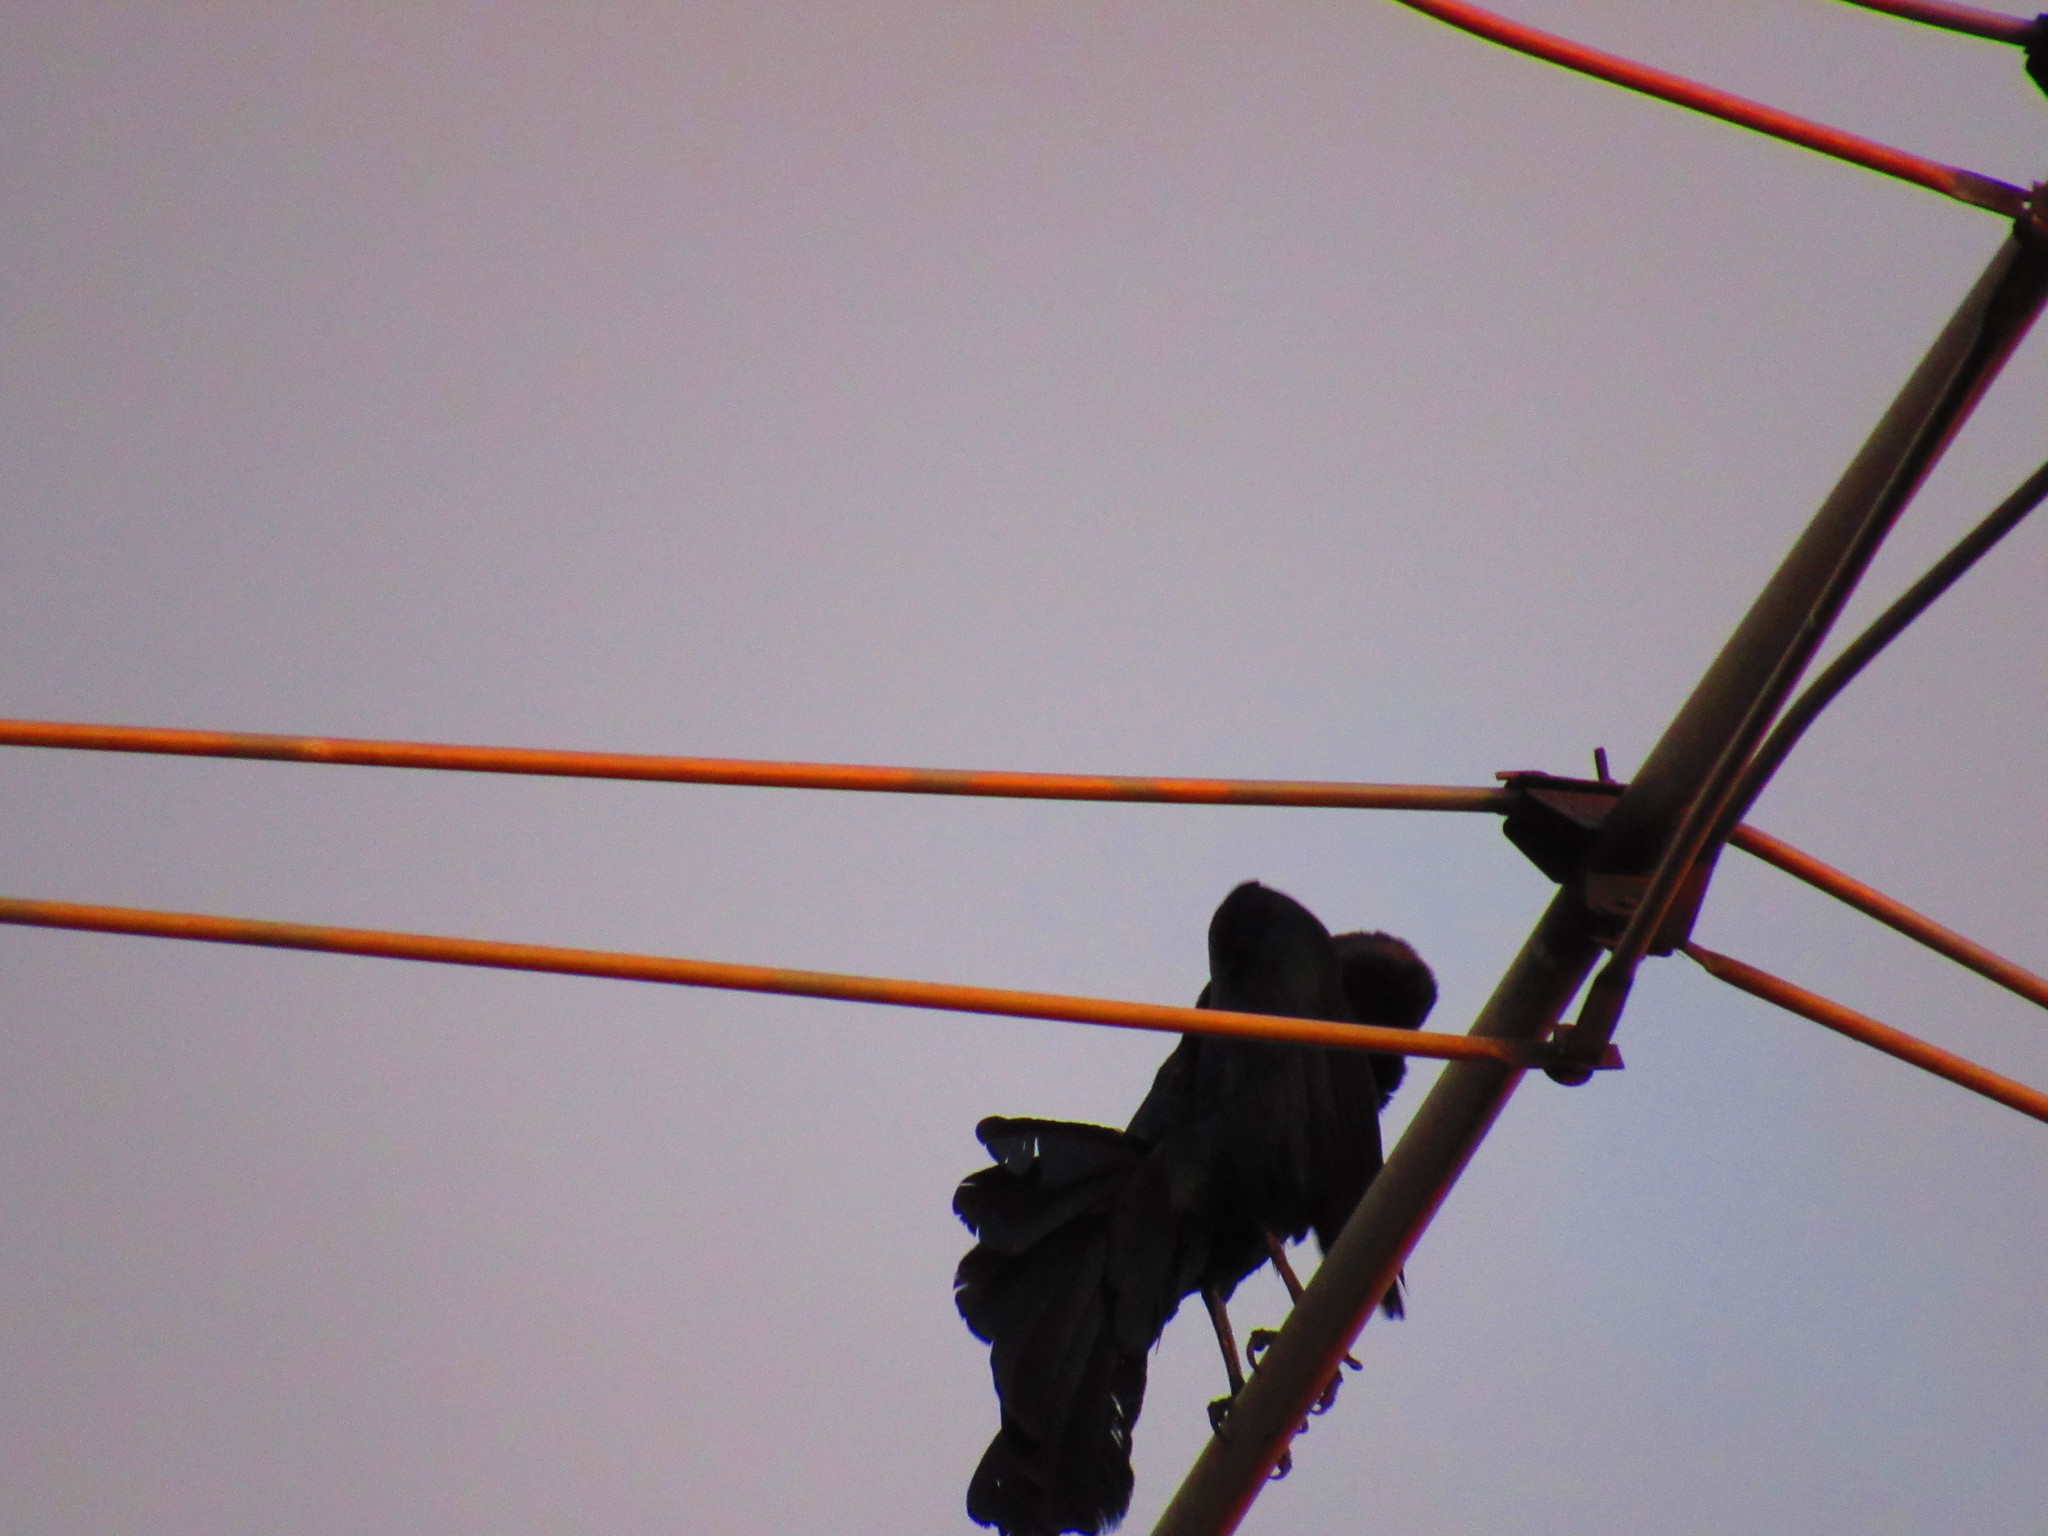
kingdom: Animalia
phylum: Chordata
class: Aves
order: Passeriformes
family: Icteridae
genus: Quiscalus
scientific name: Quiscalus mexicanus
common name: Great-tailed grackle
